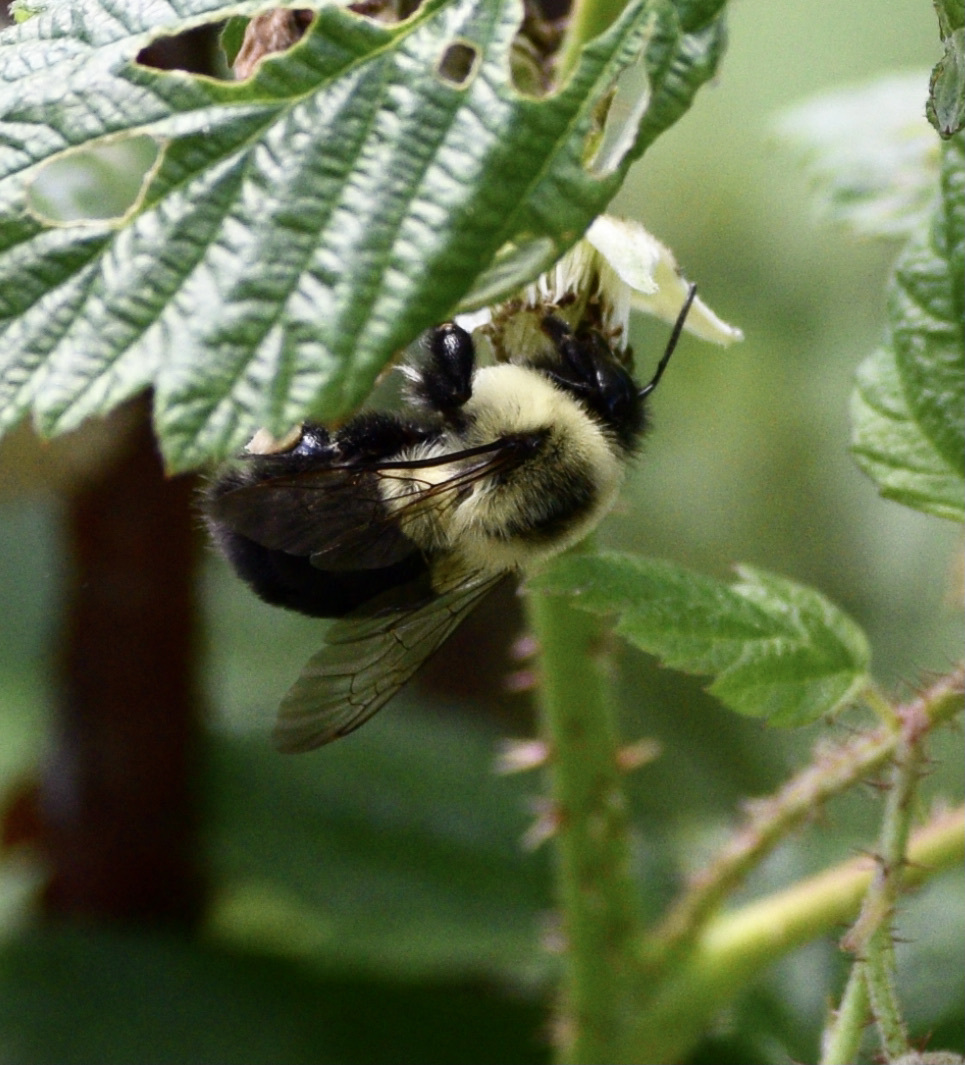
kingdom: Animalia
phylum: Arthropoda
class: Insecta
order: Hymenoptera
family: Apidae
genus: Bombus
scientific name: Bombus impatiens
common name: Common eastern bumble bee
